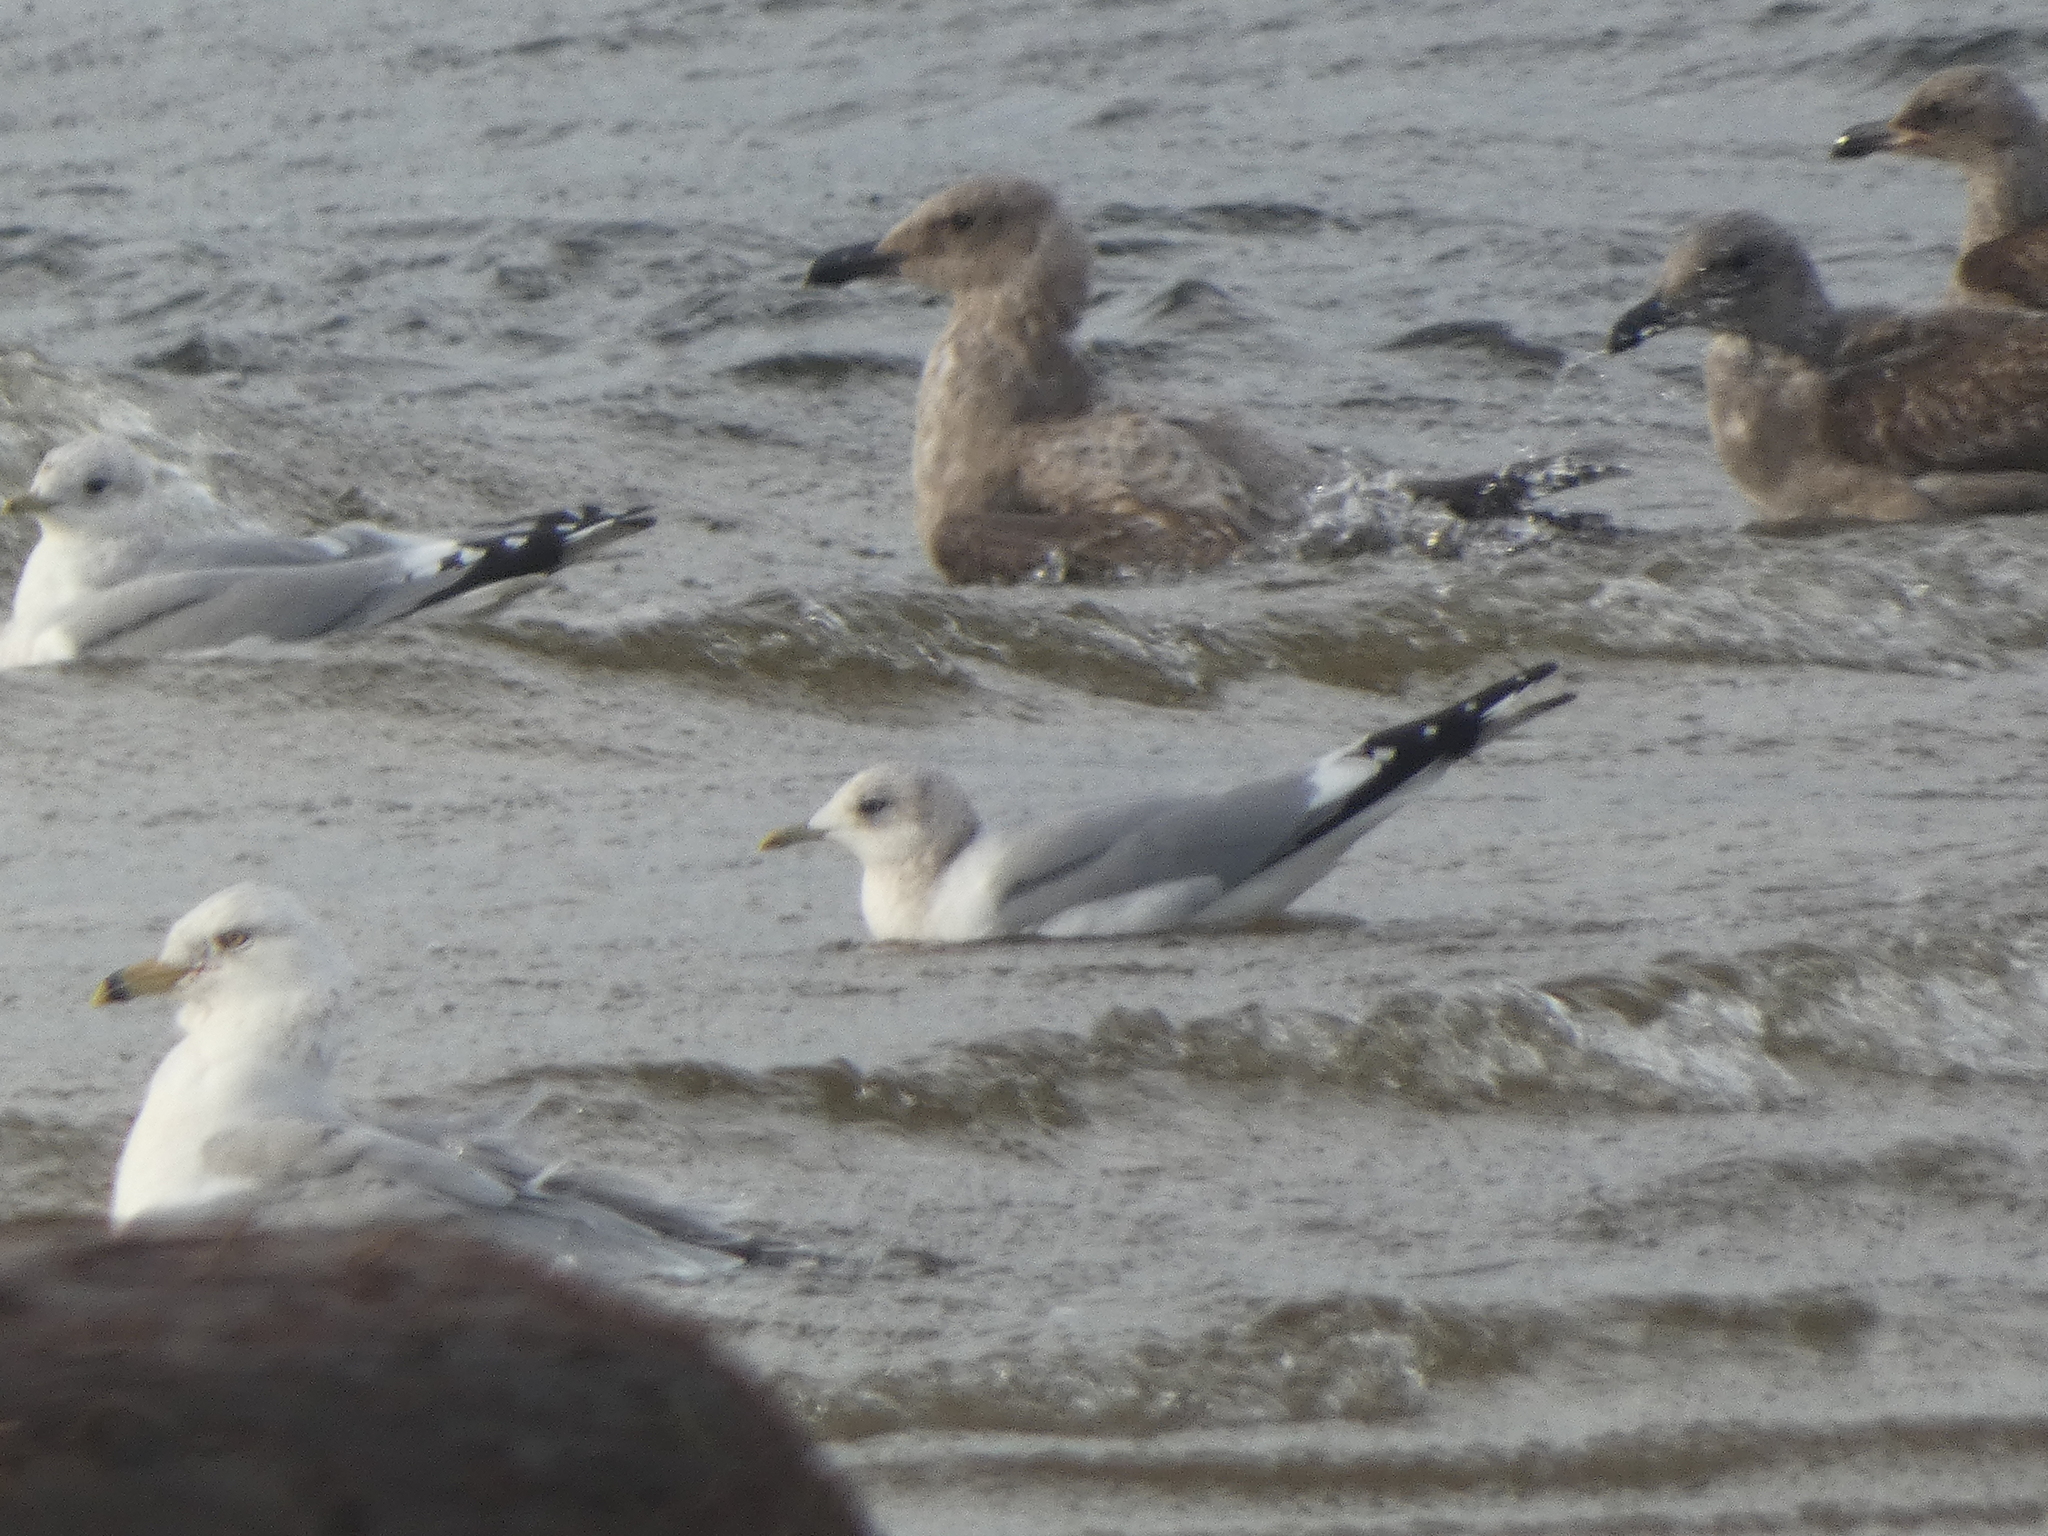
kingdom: Animalia
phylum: Chordata
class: Aves
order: Charadriiformes
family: Laridae
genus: Larus
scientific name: Larus brachyrhynchus
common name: Short-billed gull
